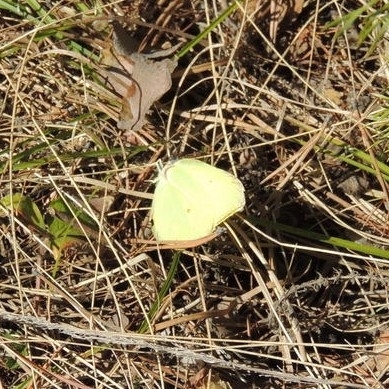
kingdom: Animalia
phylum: Arthropoda
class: Insecta
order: Lepidoptera
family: Pieridae
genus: Gonepteryx
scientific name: Gonepteryx rhamni
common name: Brimstone
